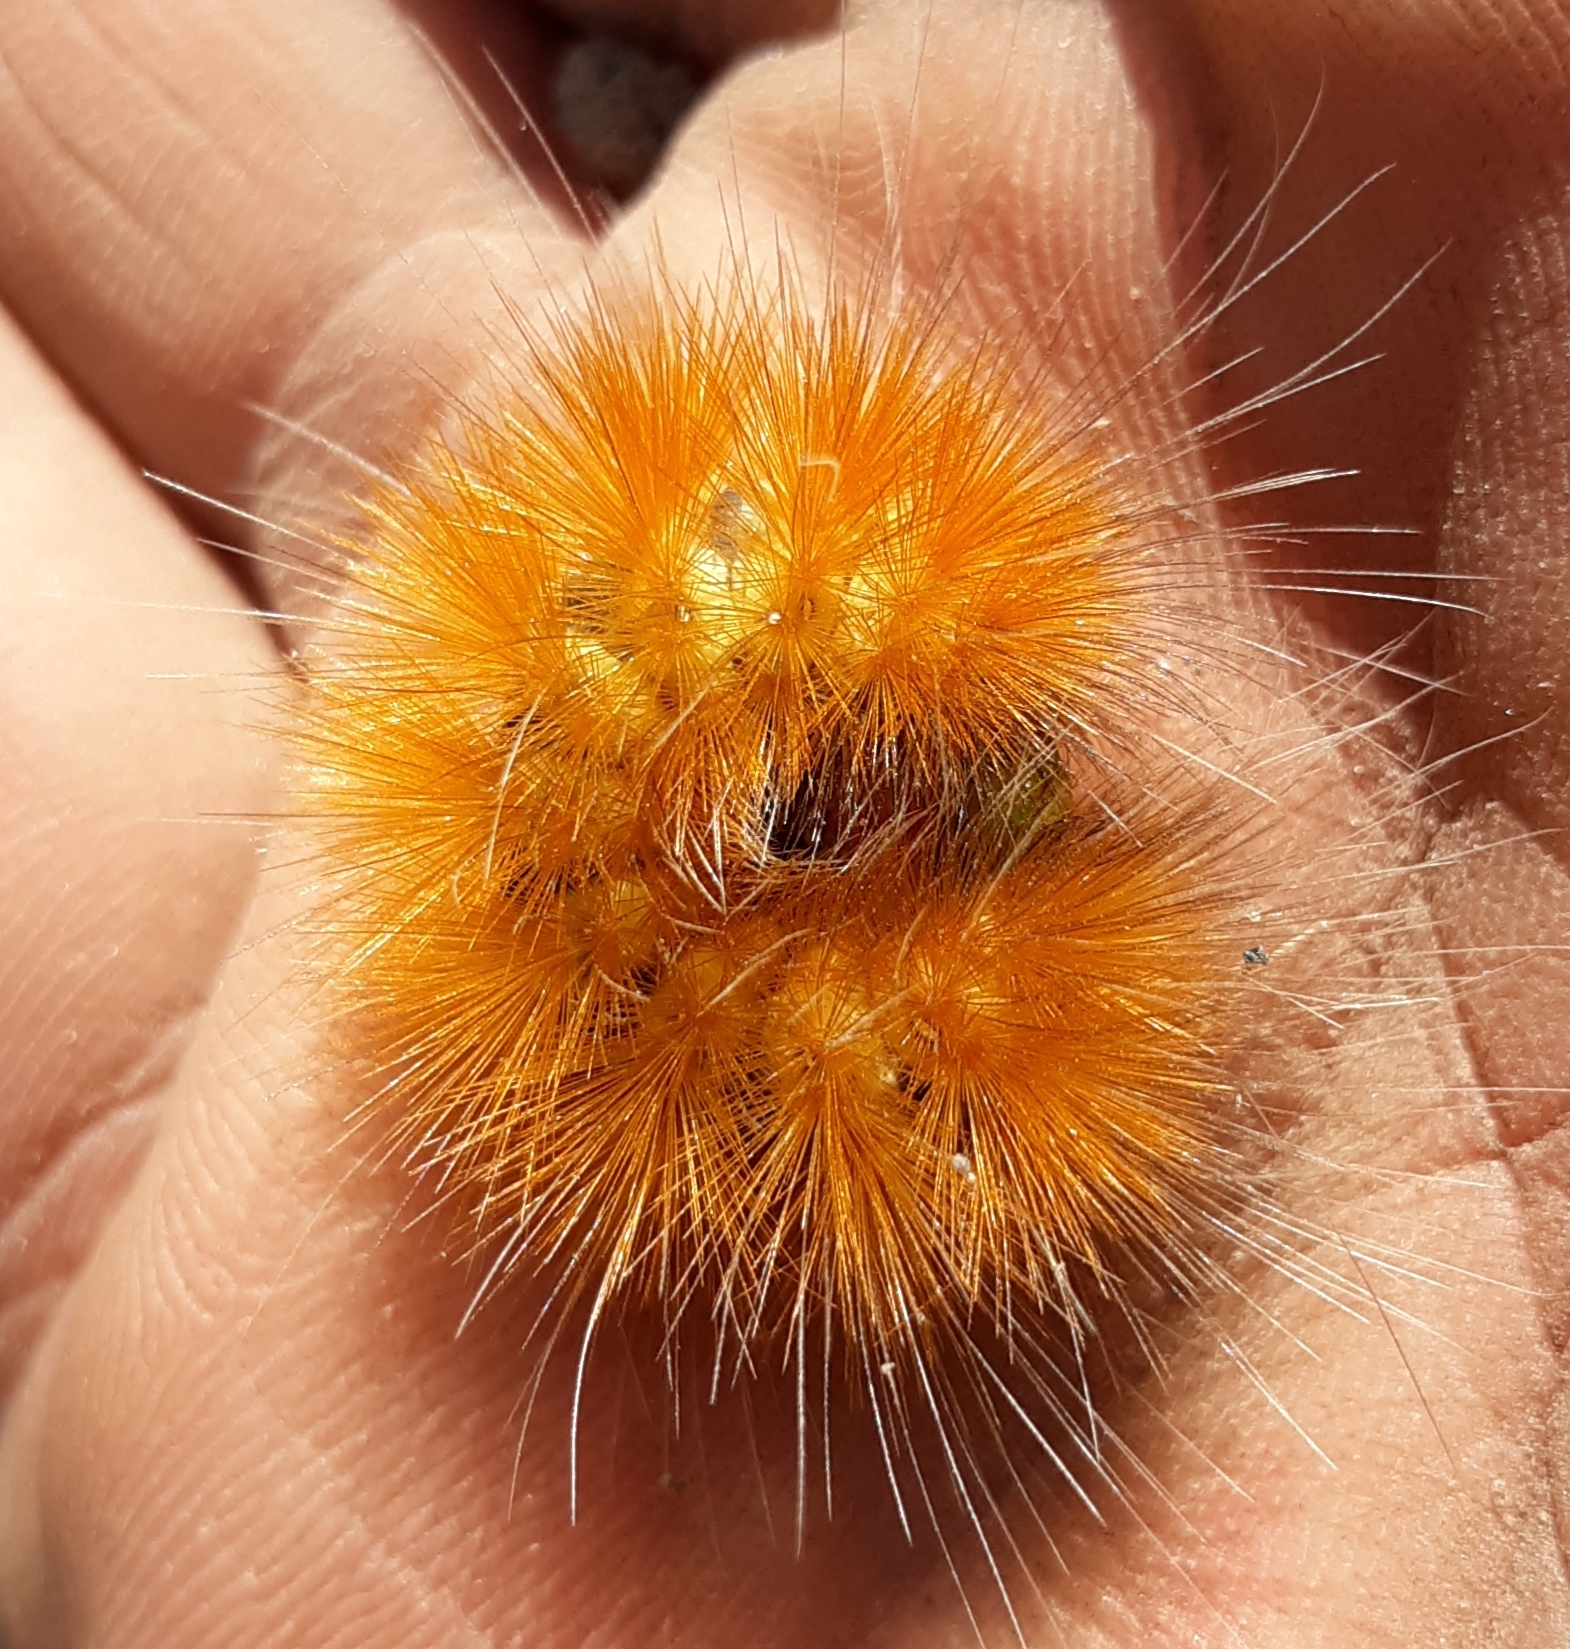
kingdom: Animalia
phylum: Arthropoda
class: Insecta
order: Lepidoptera
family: Erebidae
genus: Spilosoma
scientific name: Spilosoma virginica
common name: Virginia tiger moth
